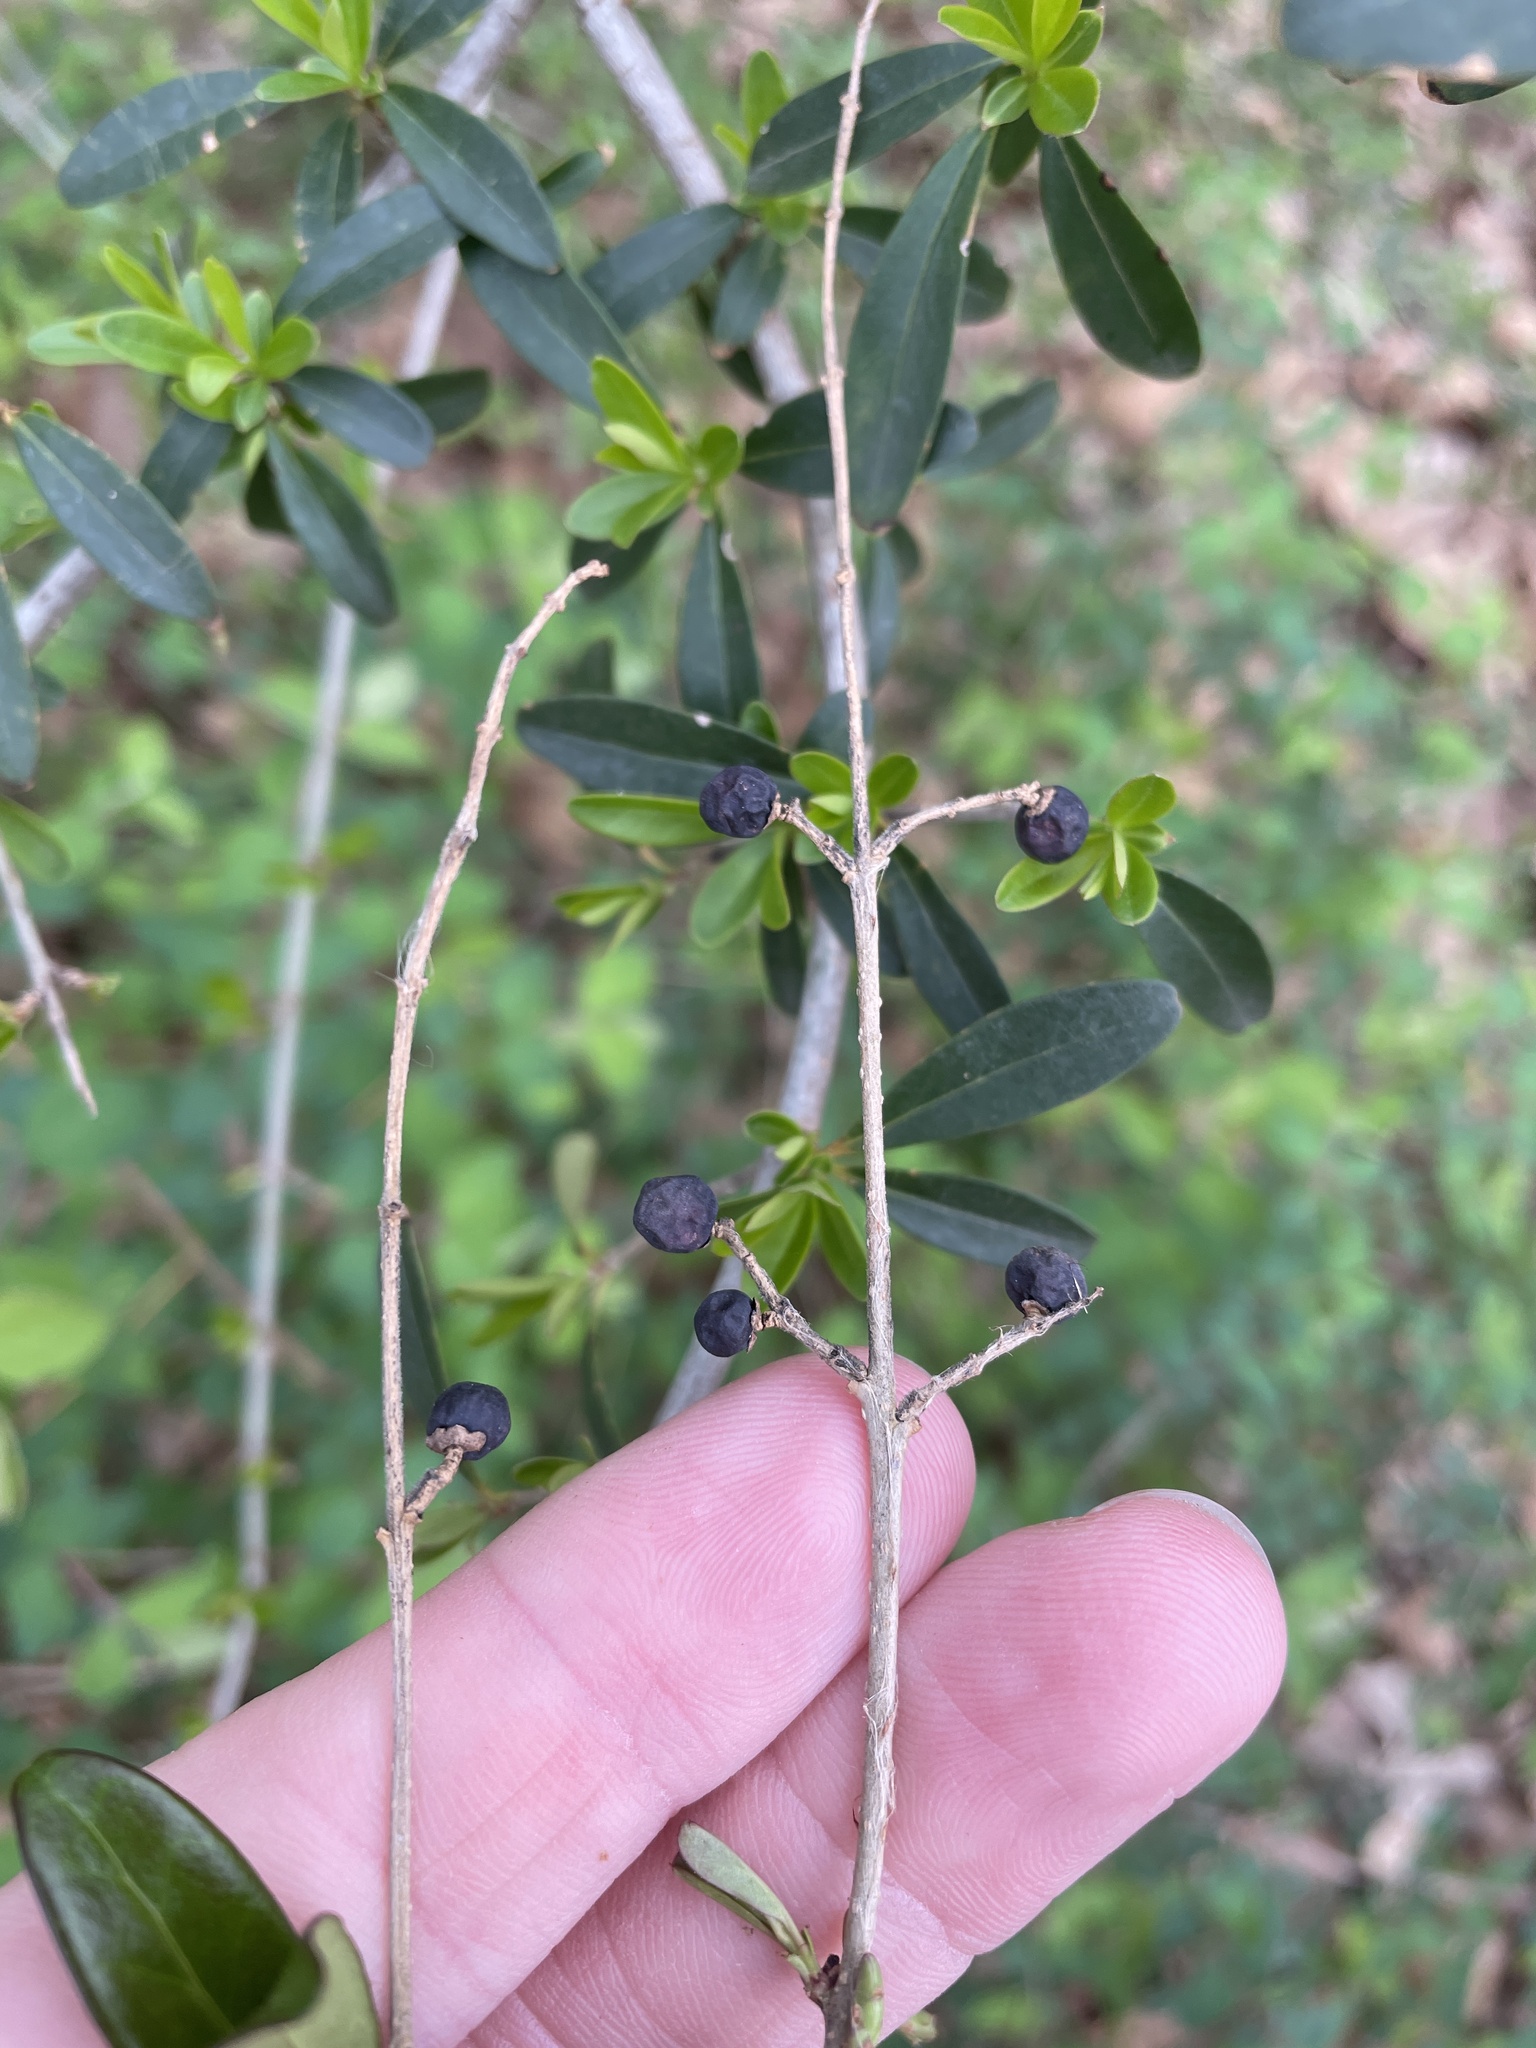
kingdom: Plantae
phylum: Tracheophyta
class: Magnoliopsida
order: Lamiales
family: Oleaceae
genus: Ligustrum
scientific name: Ligustrum quihoui
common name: Waxyleaf privet
